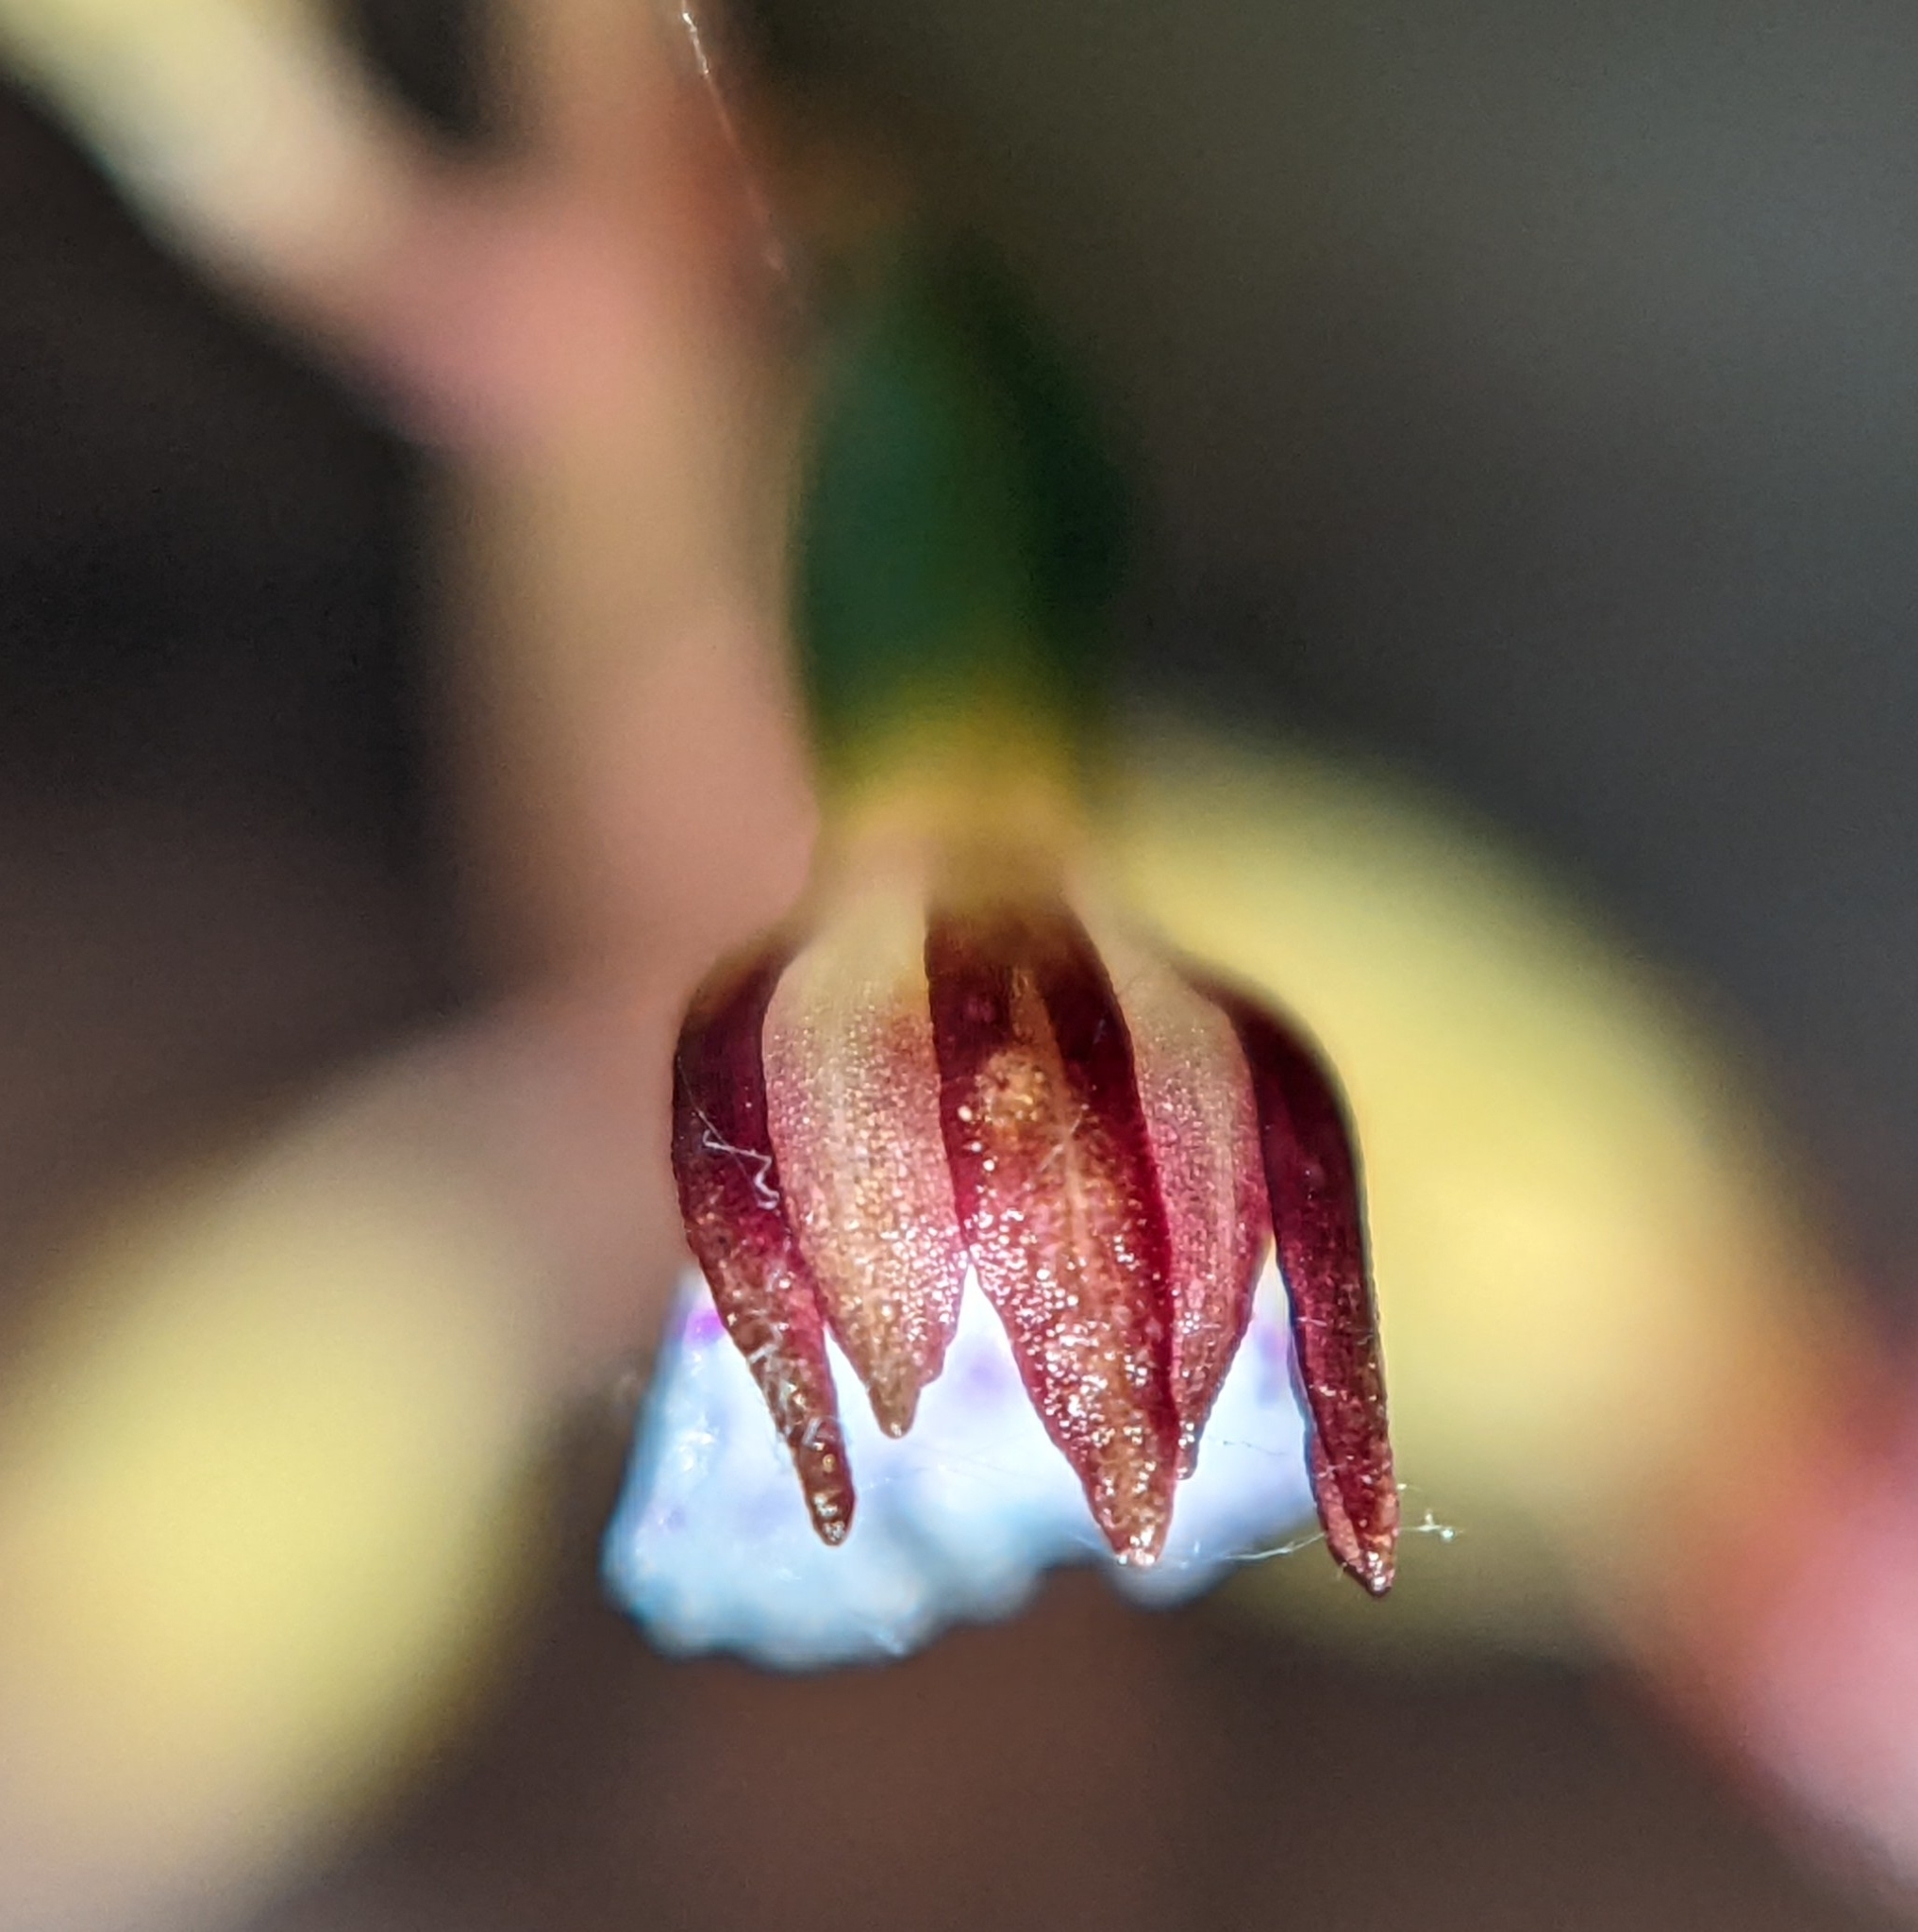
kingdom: Plantae
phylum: Tracheophyta
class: Liliopsida
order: Asparagales
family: Orchidaceae
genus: Corallorhiza
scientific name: Corallorhiza odontorhiza
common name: Autumn coralroot
